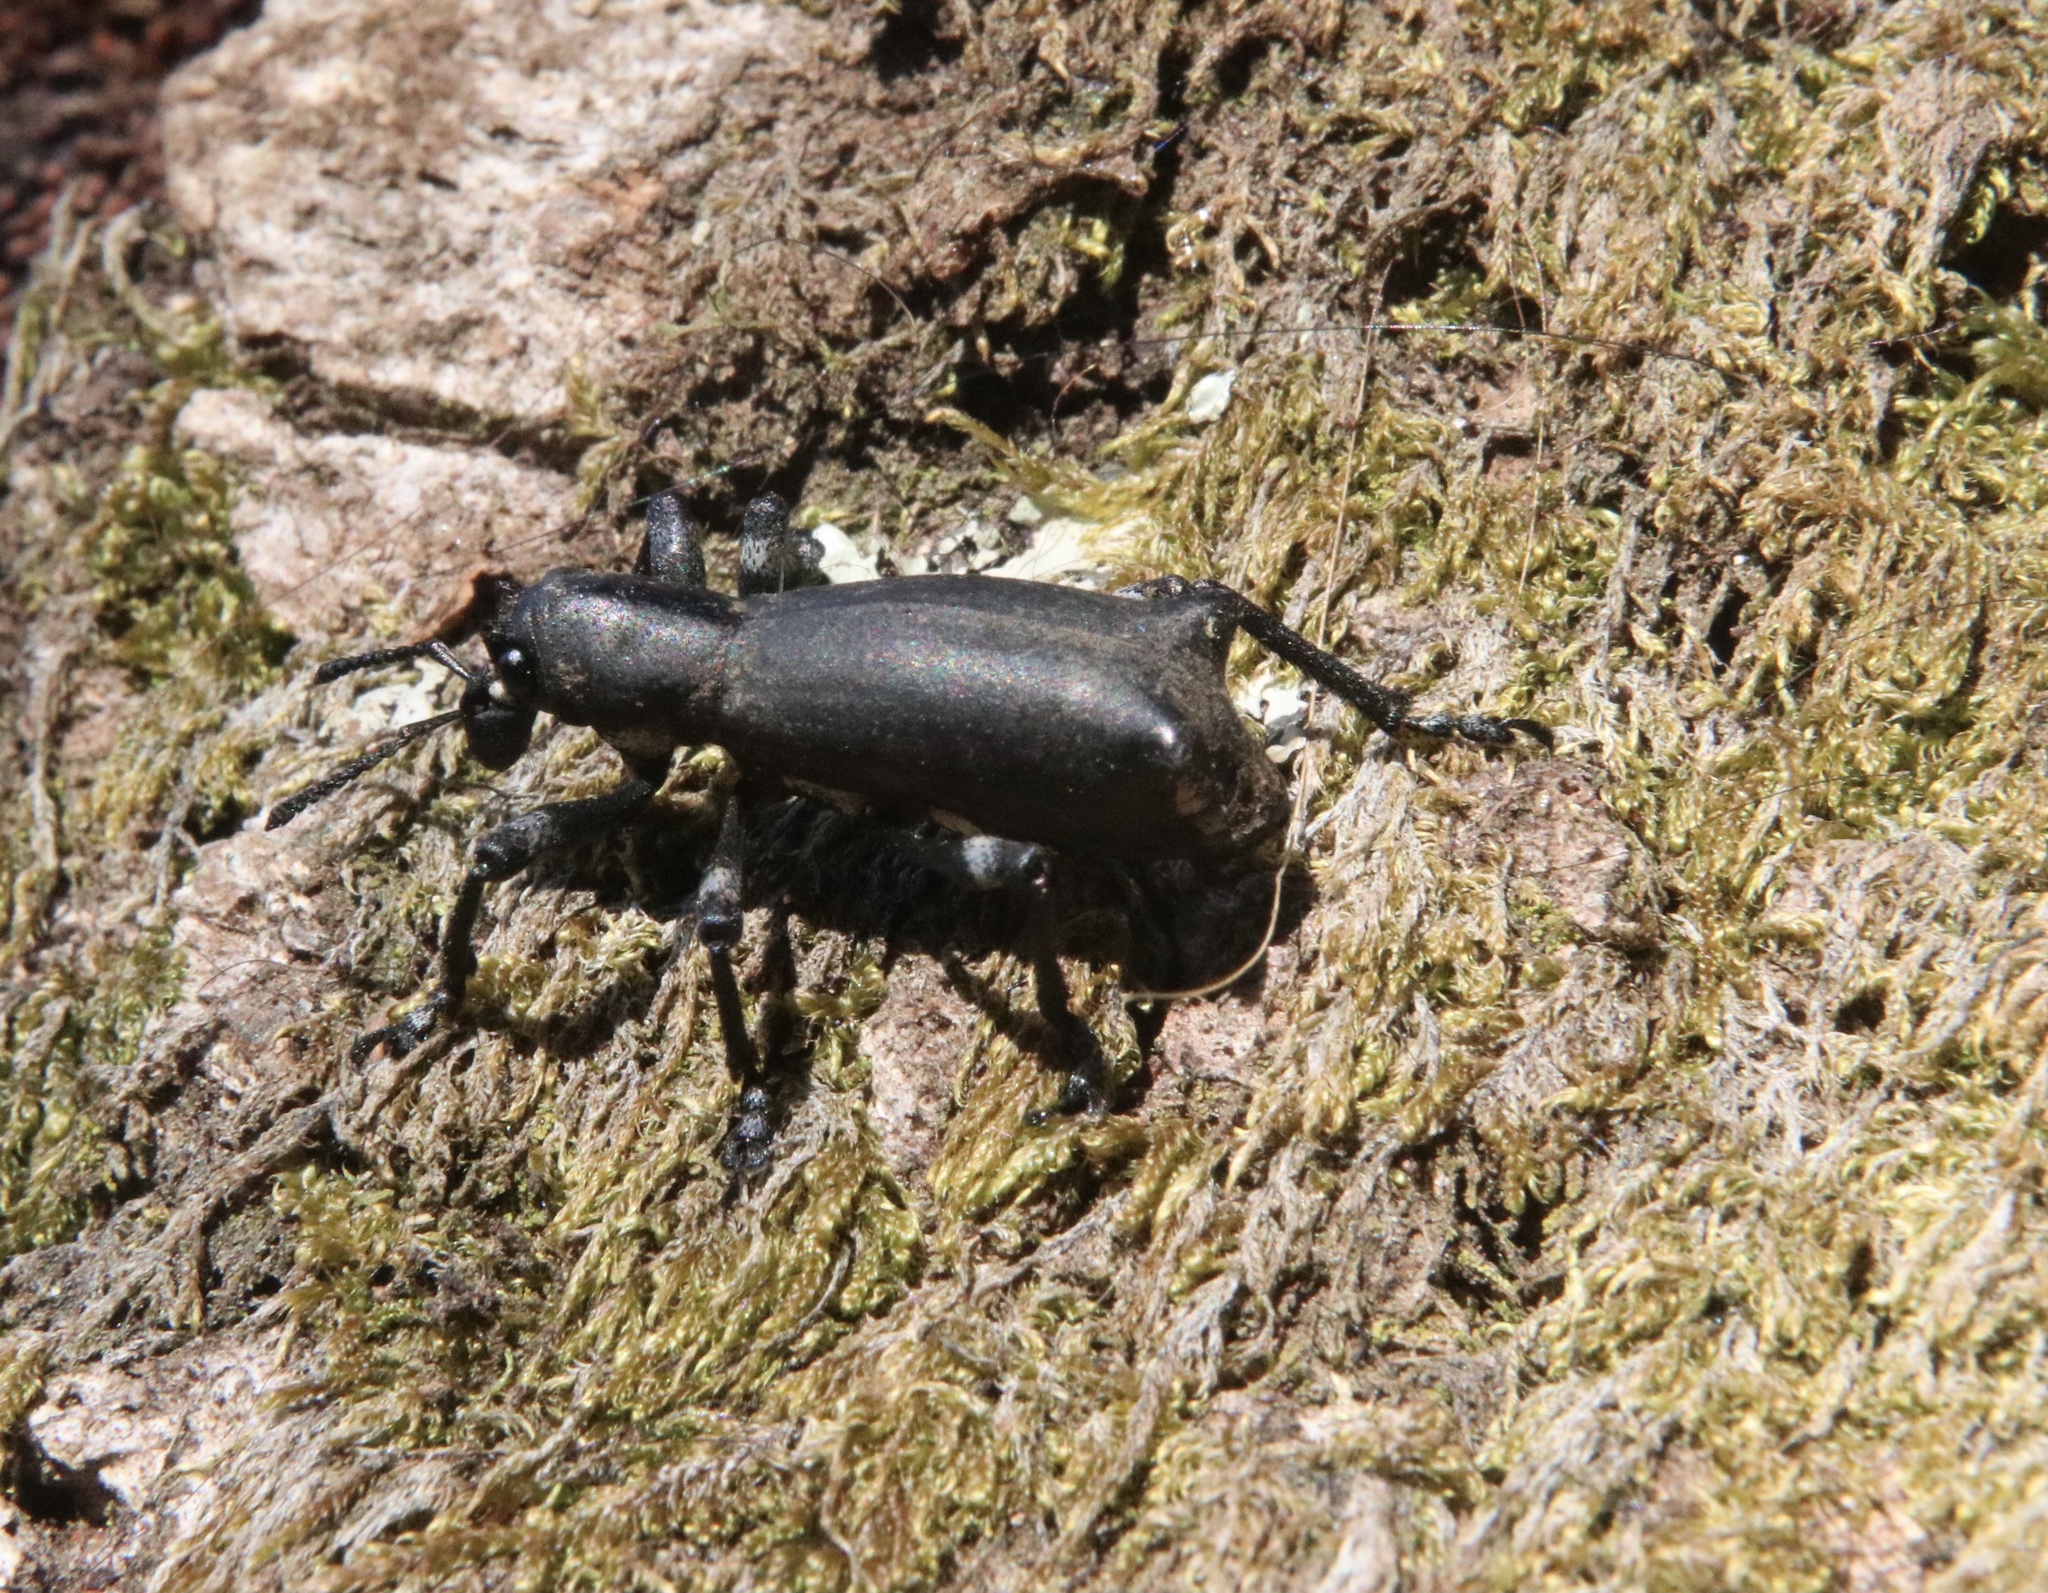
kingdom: Animalia
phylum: Arthropoda
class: Insecta
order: Coleoptera
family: Curculionidae
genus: Aegorhinus
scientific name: Aegorhinus
